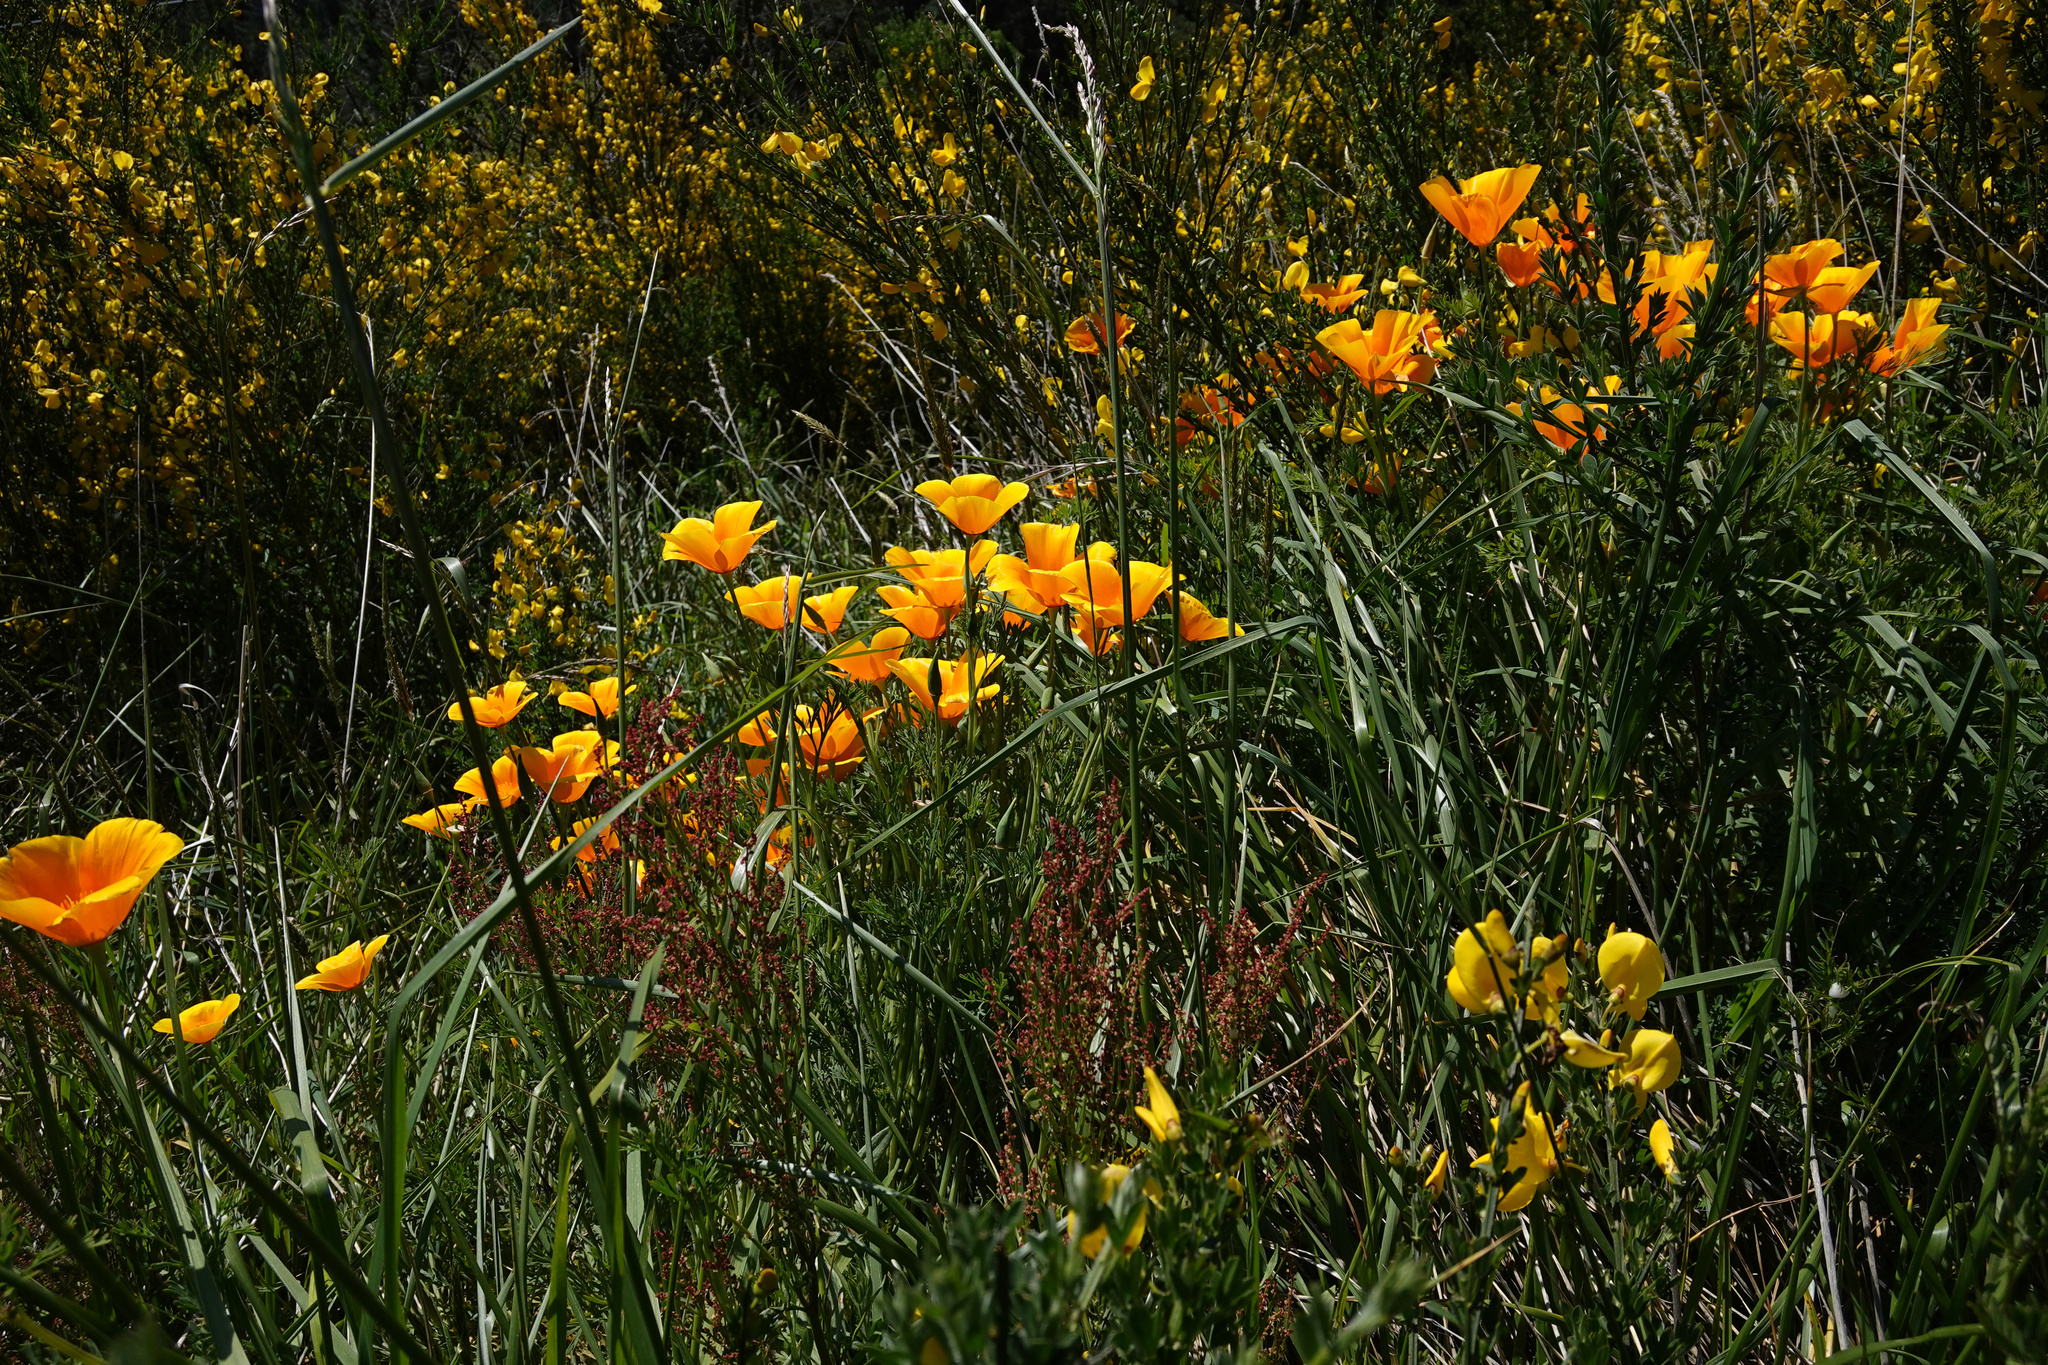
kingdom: Plantae
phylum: Tracheophyta
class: Magnoliopsida
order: Ranunculales
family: Papaveraceae
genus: Eschscholzia
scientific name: Eschscholzia californica
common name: California poppy
